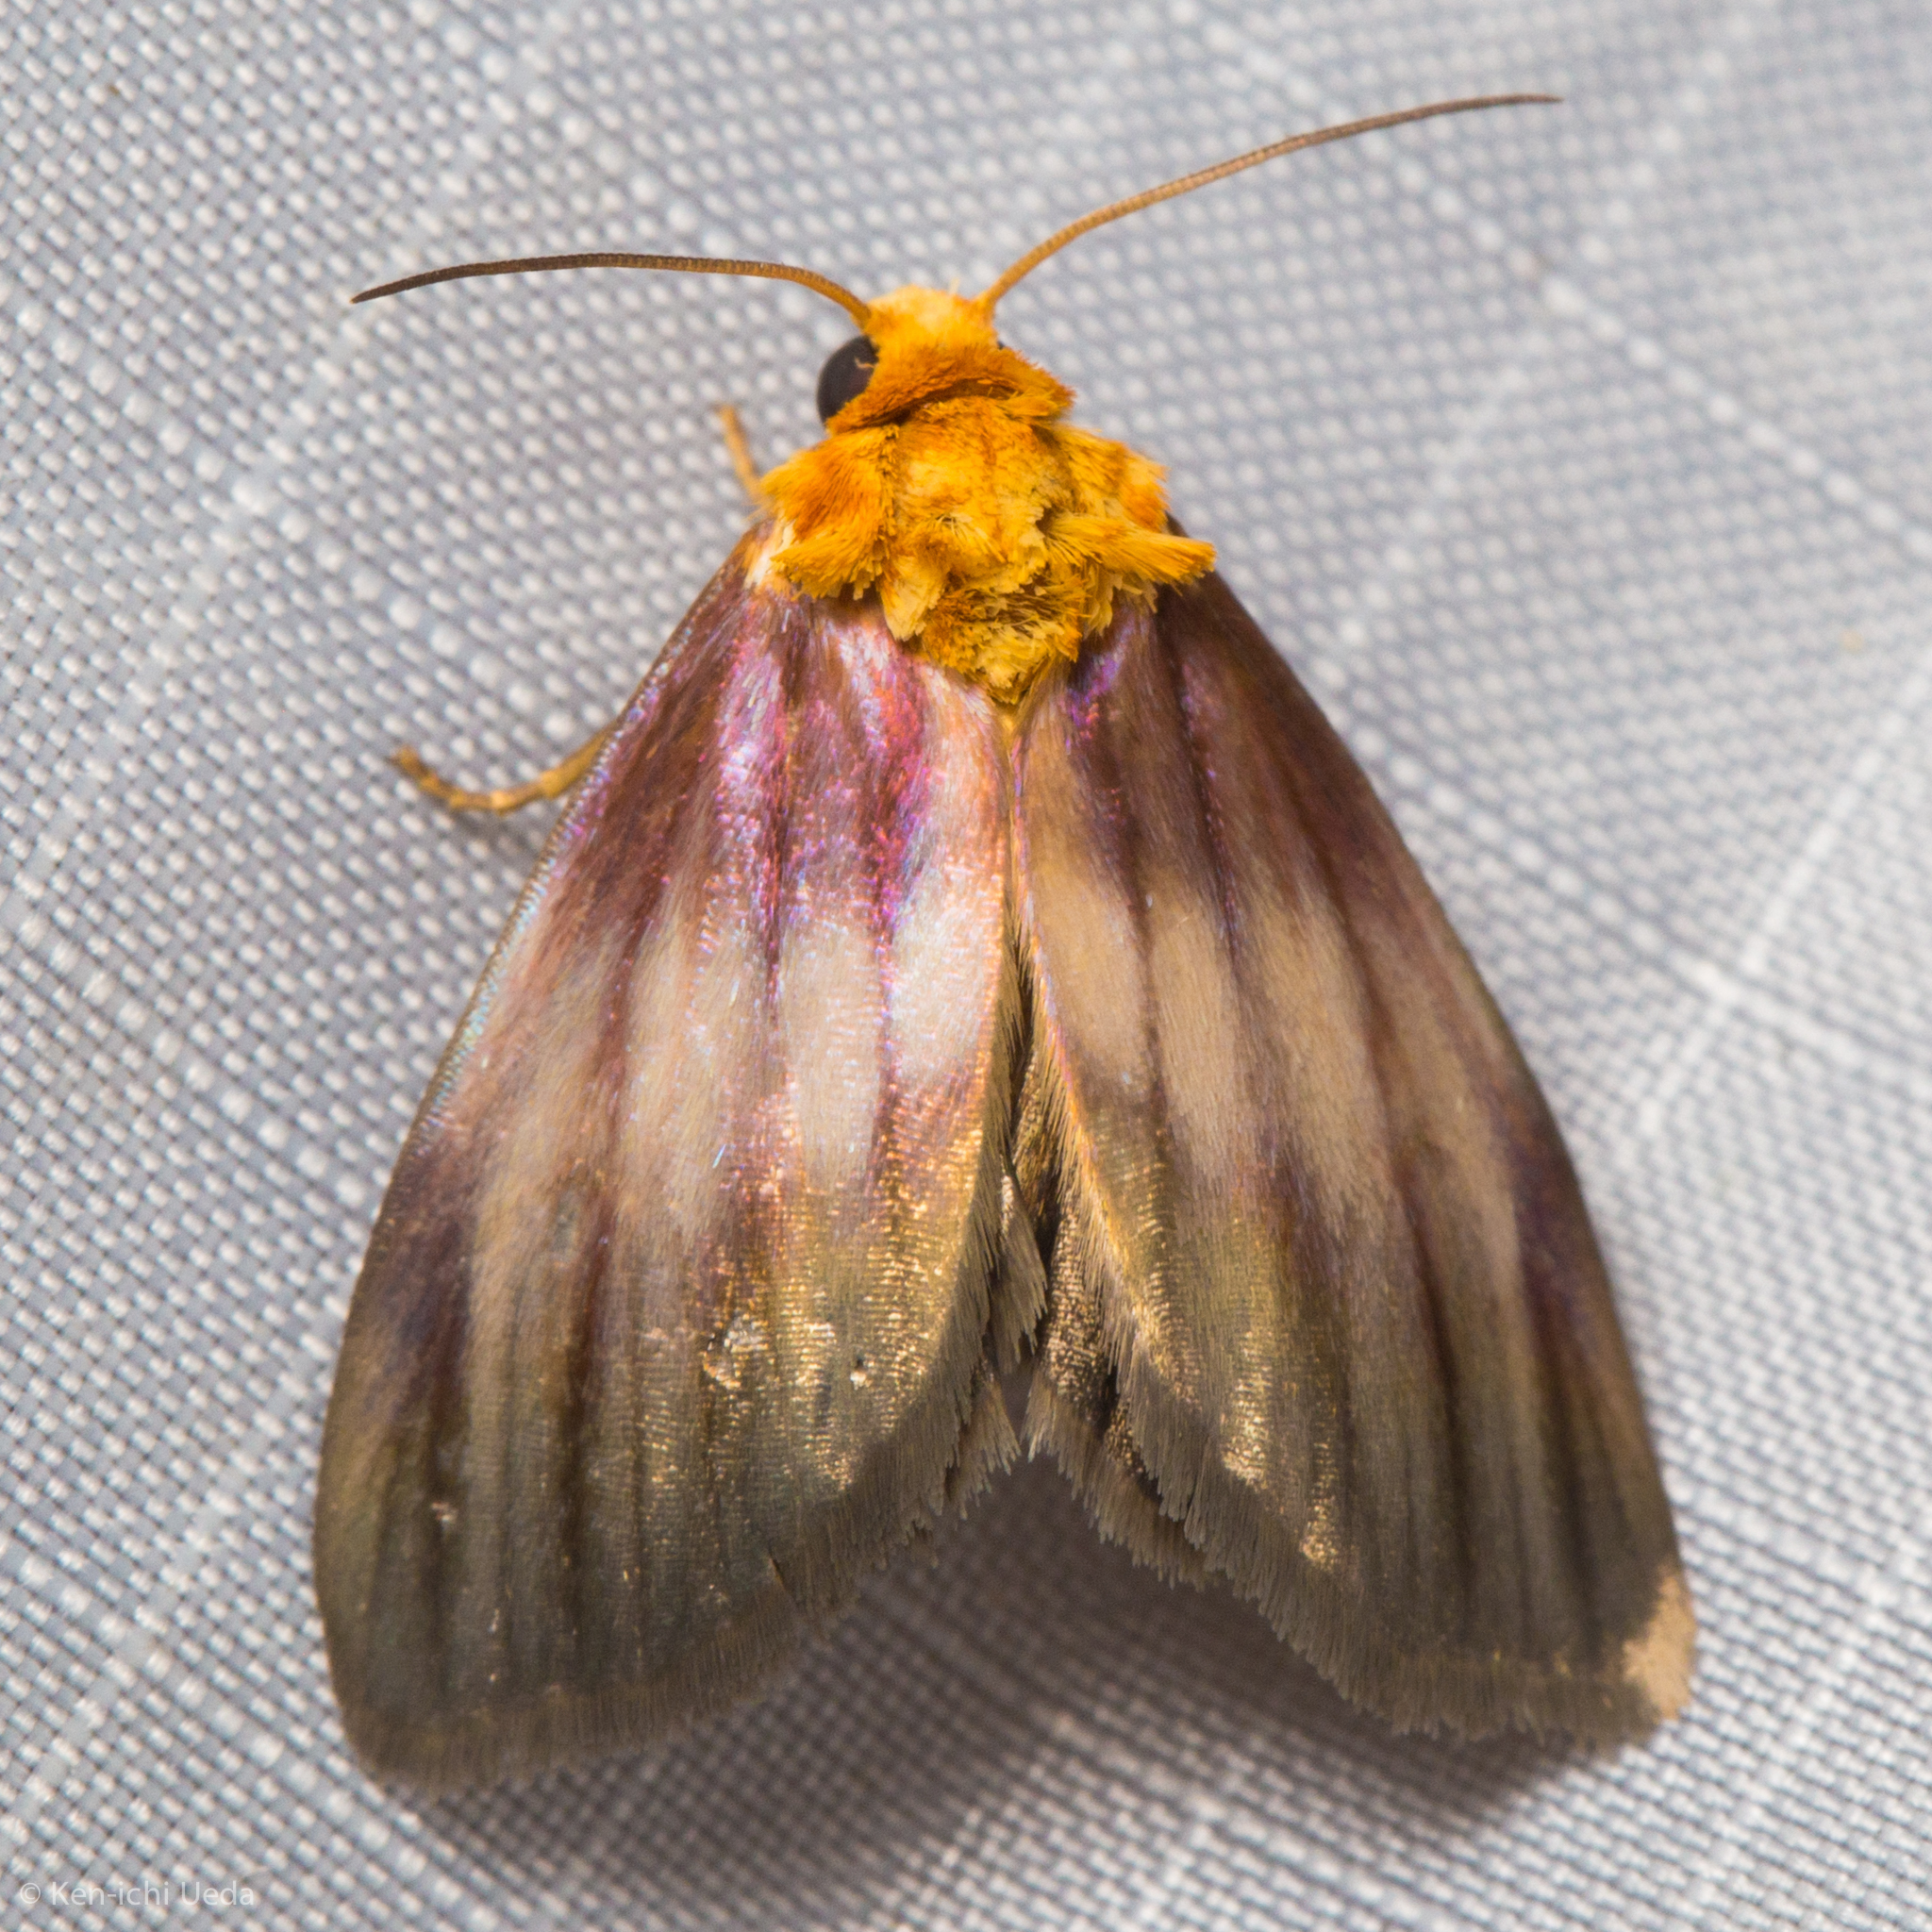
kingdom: Animalia
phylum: Arthropoda
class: Insecta
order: Lepidoptera
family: Noctuidae
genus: Antaplaga
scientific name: Antaplaga plesioglauca
